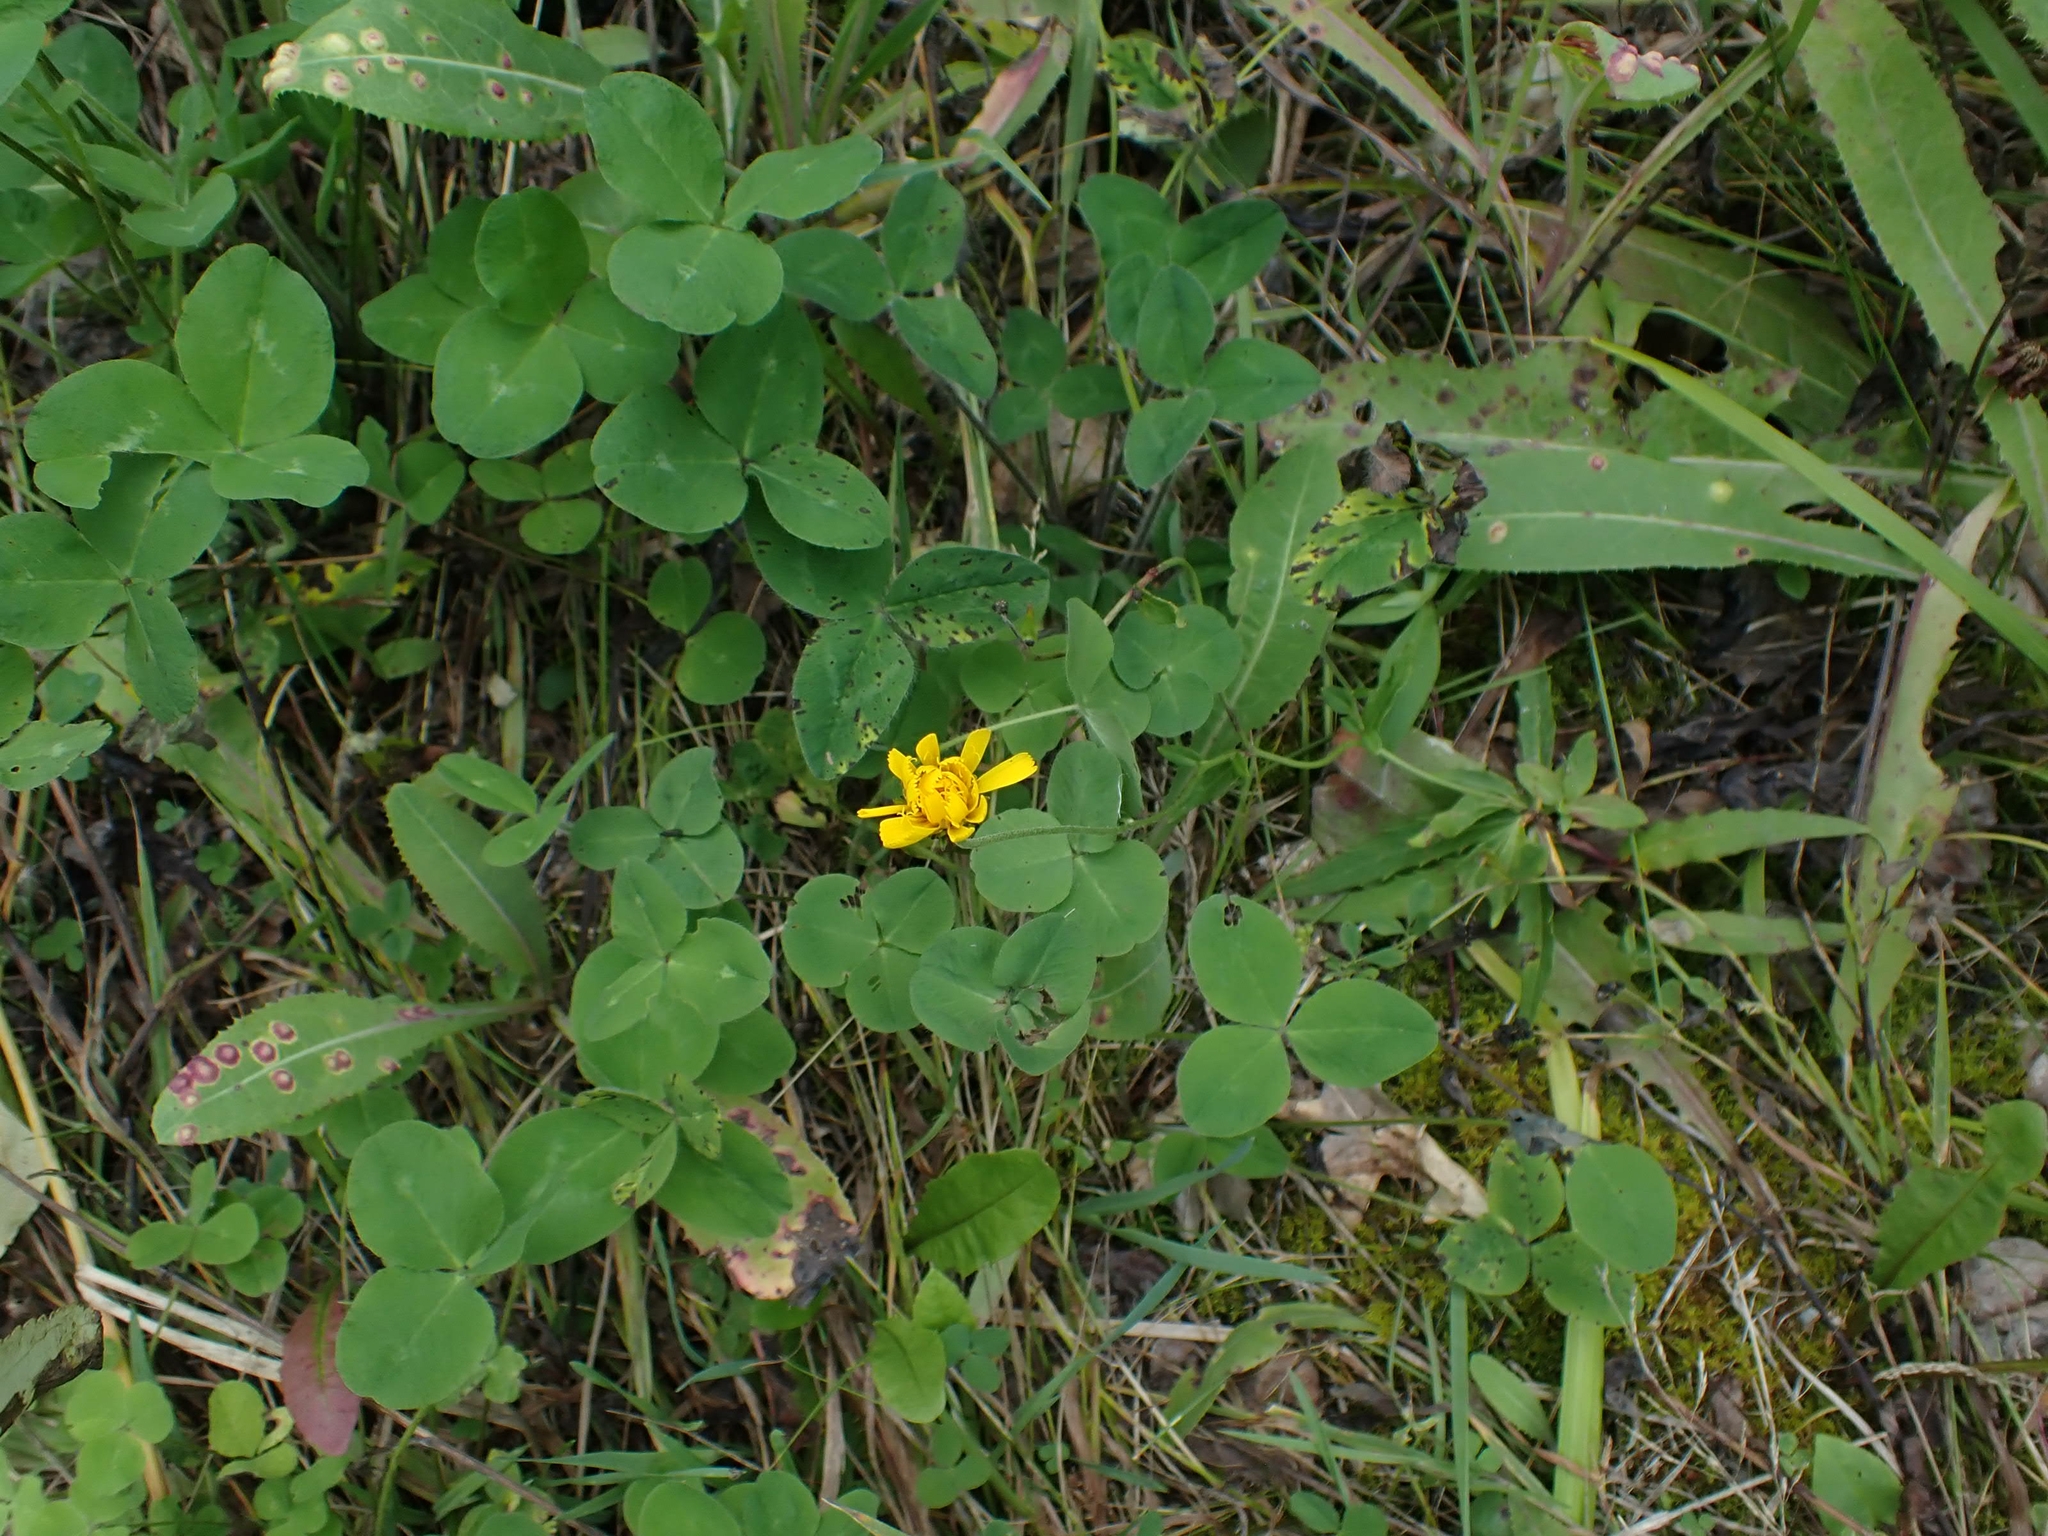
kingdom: Plantae
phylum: Tracheophyta
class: Magnoliopsida
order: Asterales
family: Asteraceae
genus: Hieracium
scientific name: Hieracium umbellatum
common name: Northern hawkweed
